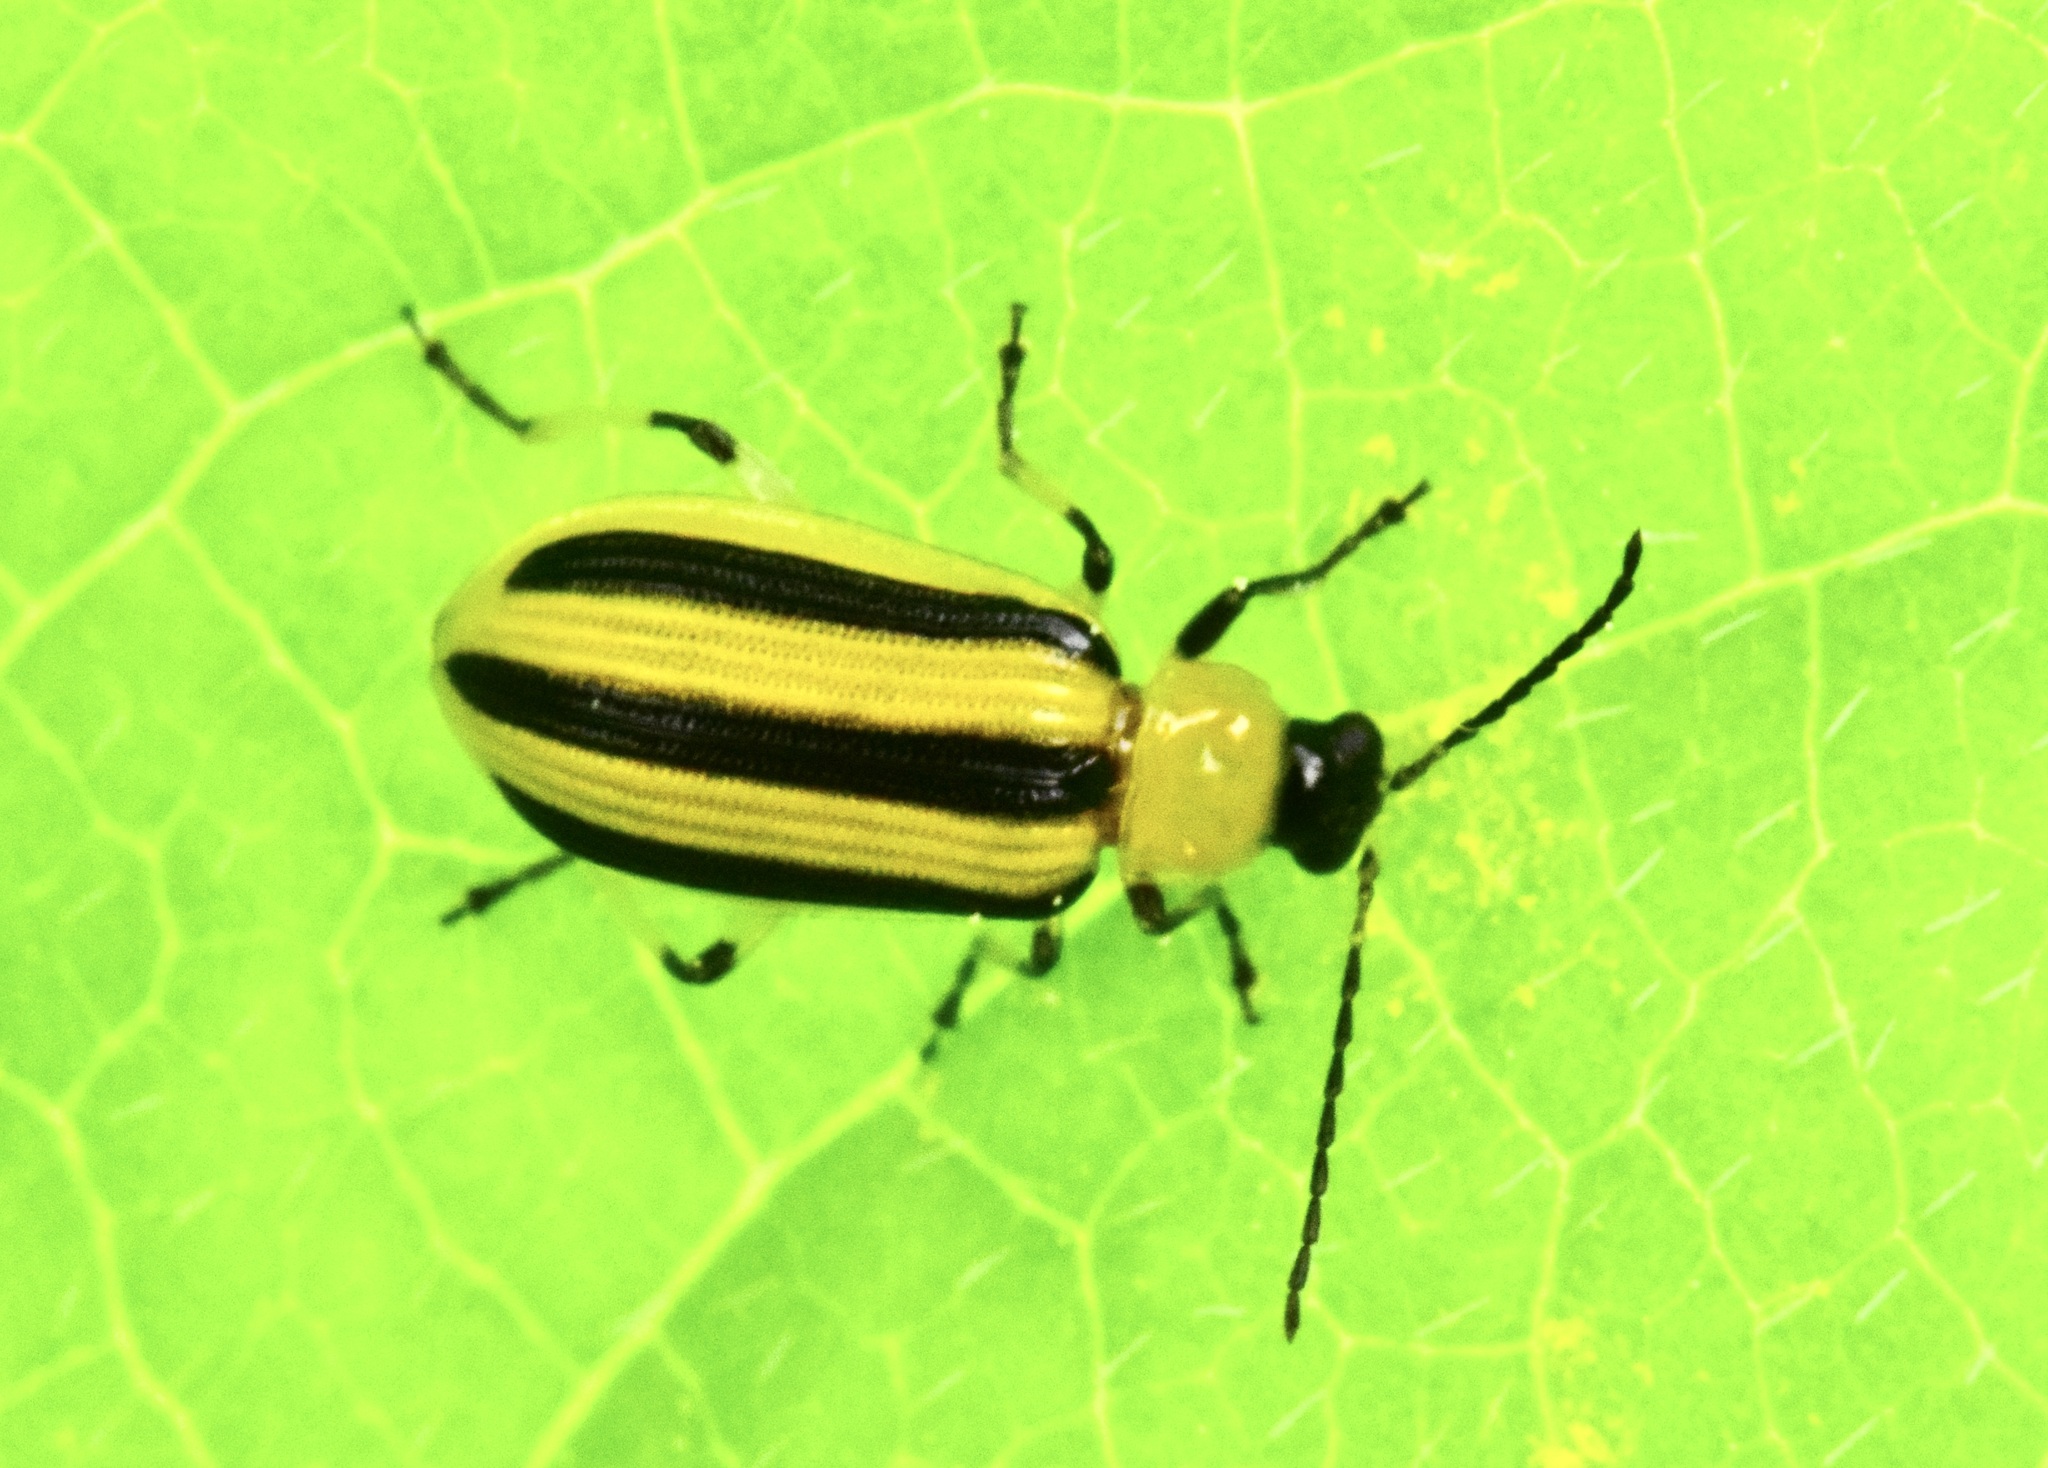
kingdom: Animalia
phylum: Arthropoda
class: Insecta
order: Coleoptera
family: Chrysomelidae
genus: Acalymma
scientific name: Acalymma vittatum
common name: Striped cucumber beetle
